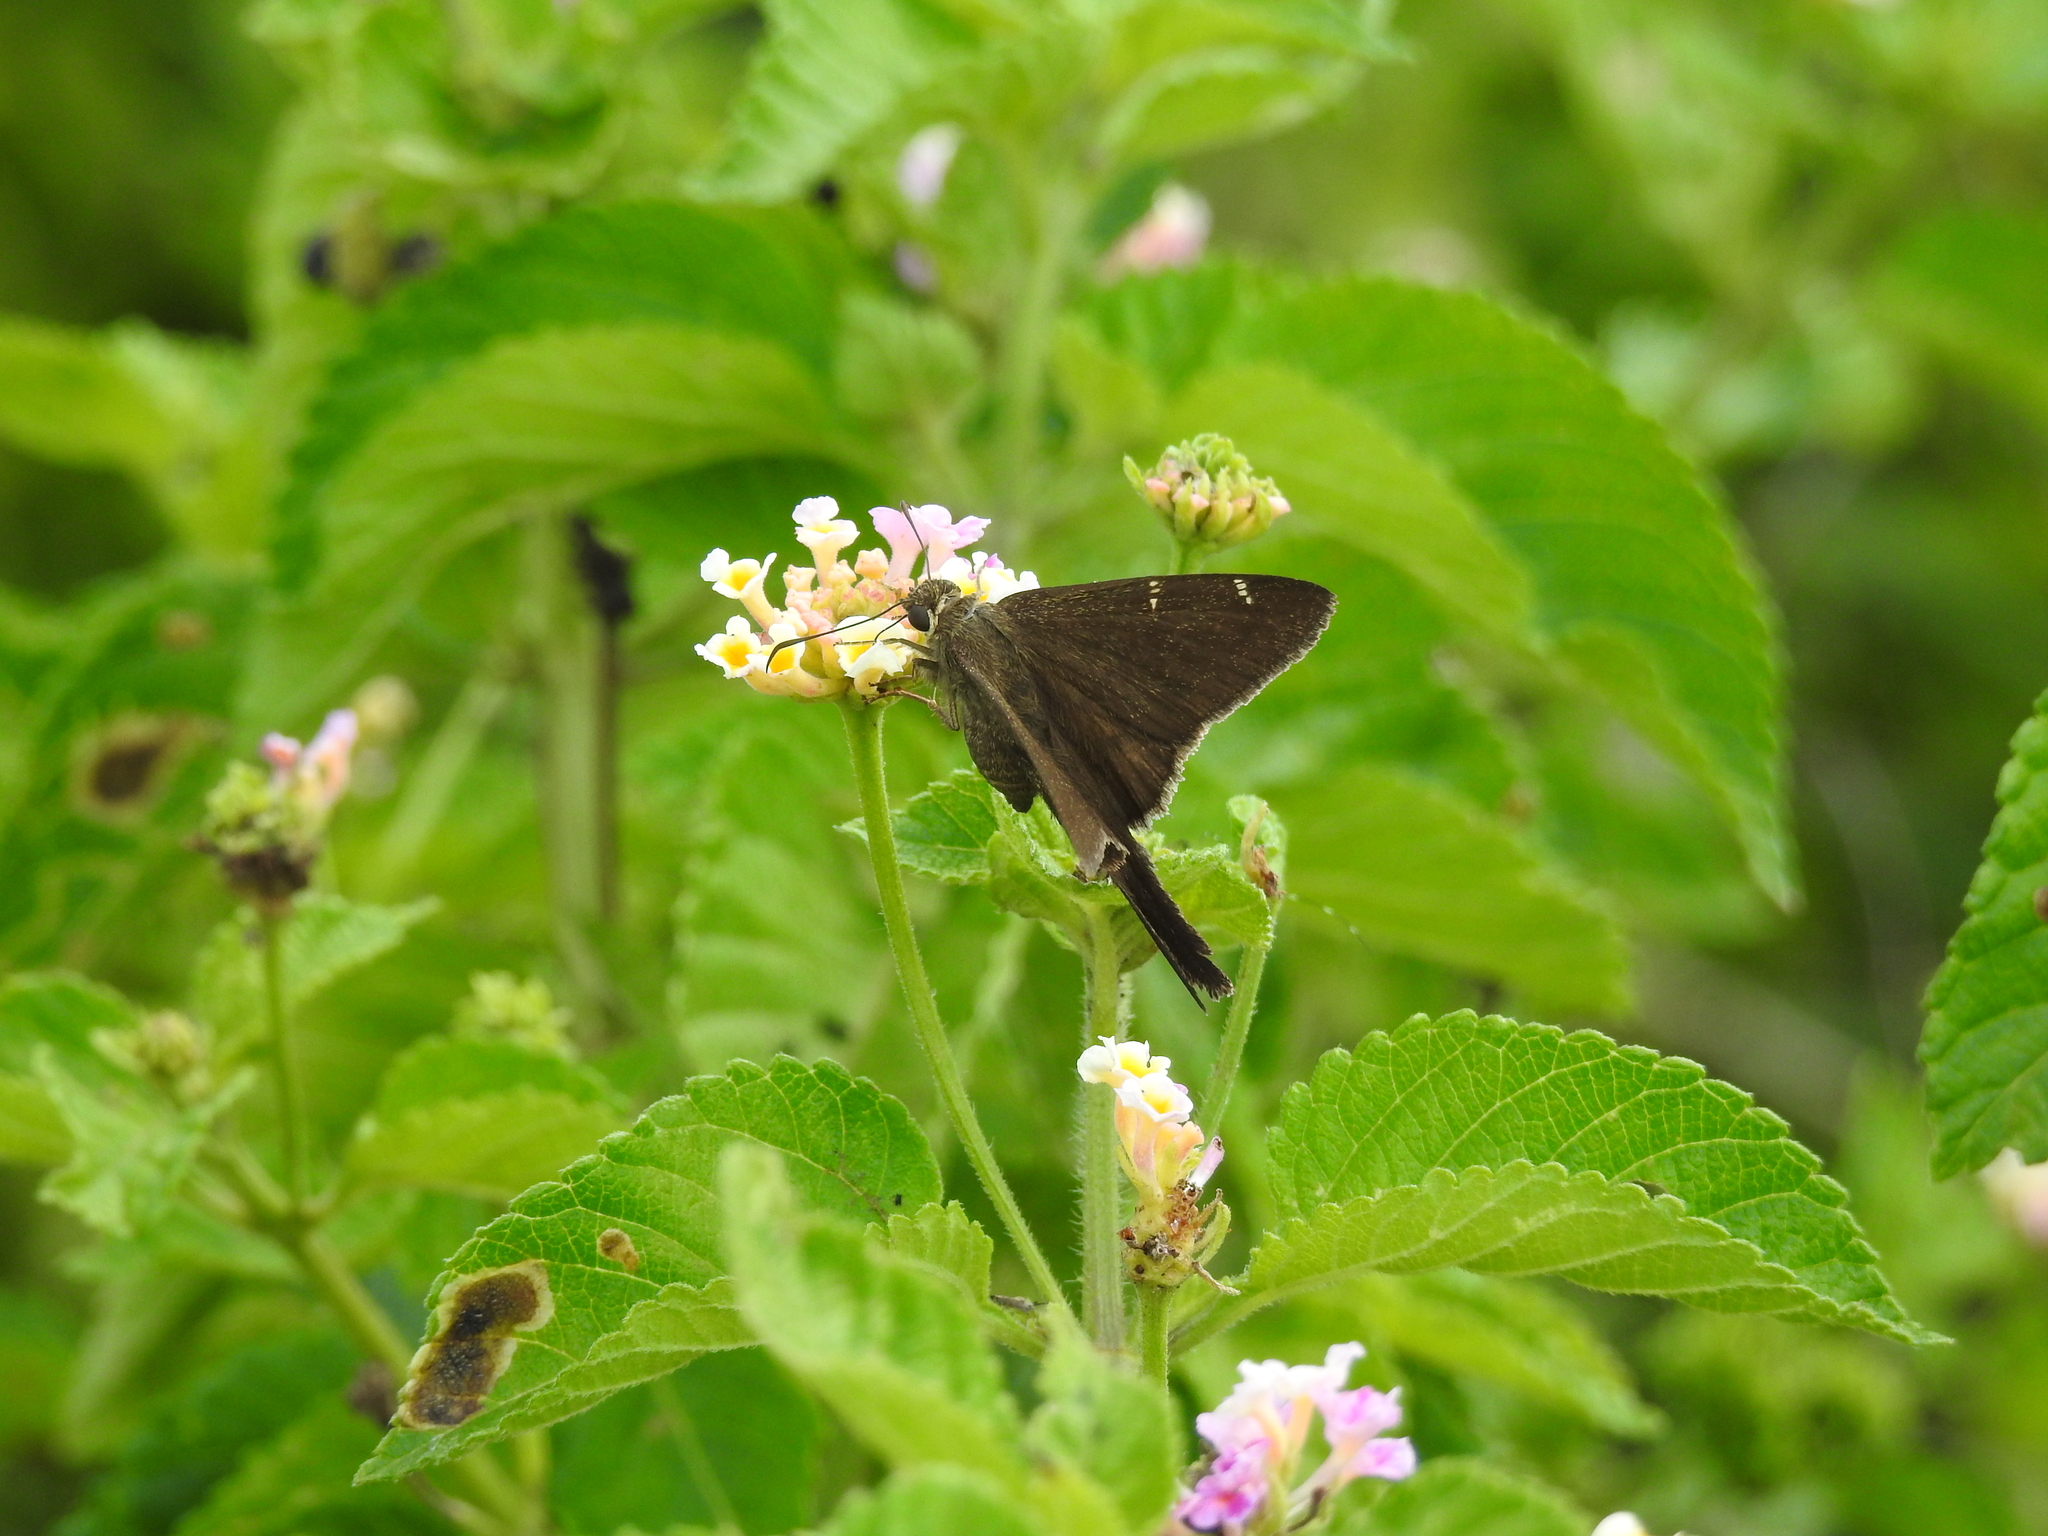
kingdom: Animalia
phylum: Arthropoda
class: Insecta
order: Lepidoptera
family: Hesperiidae
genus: Urbanus
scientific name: Urbanus procne
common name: Brown longtail
